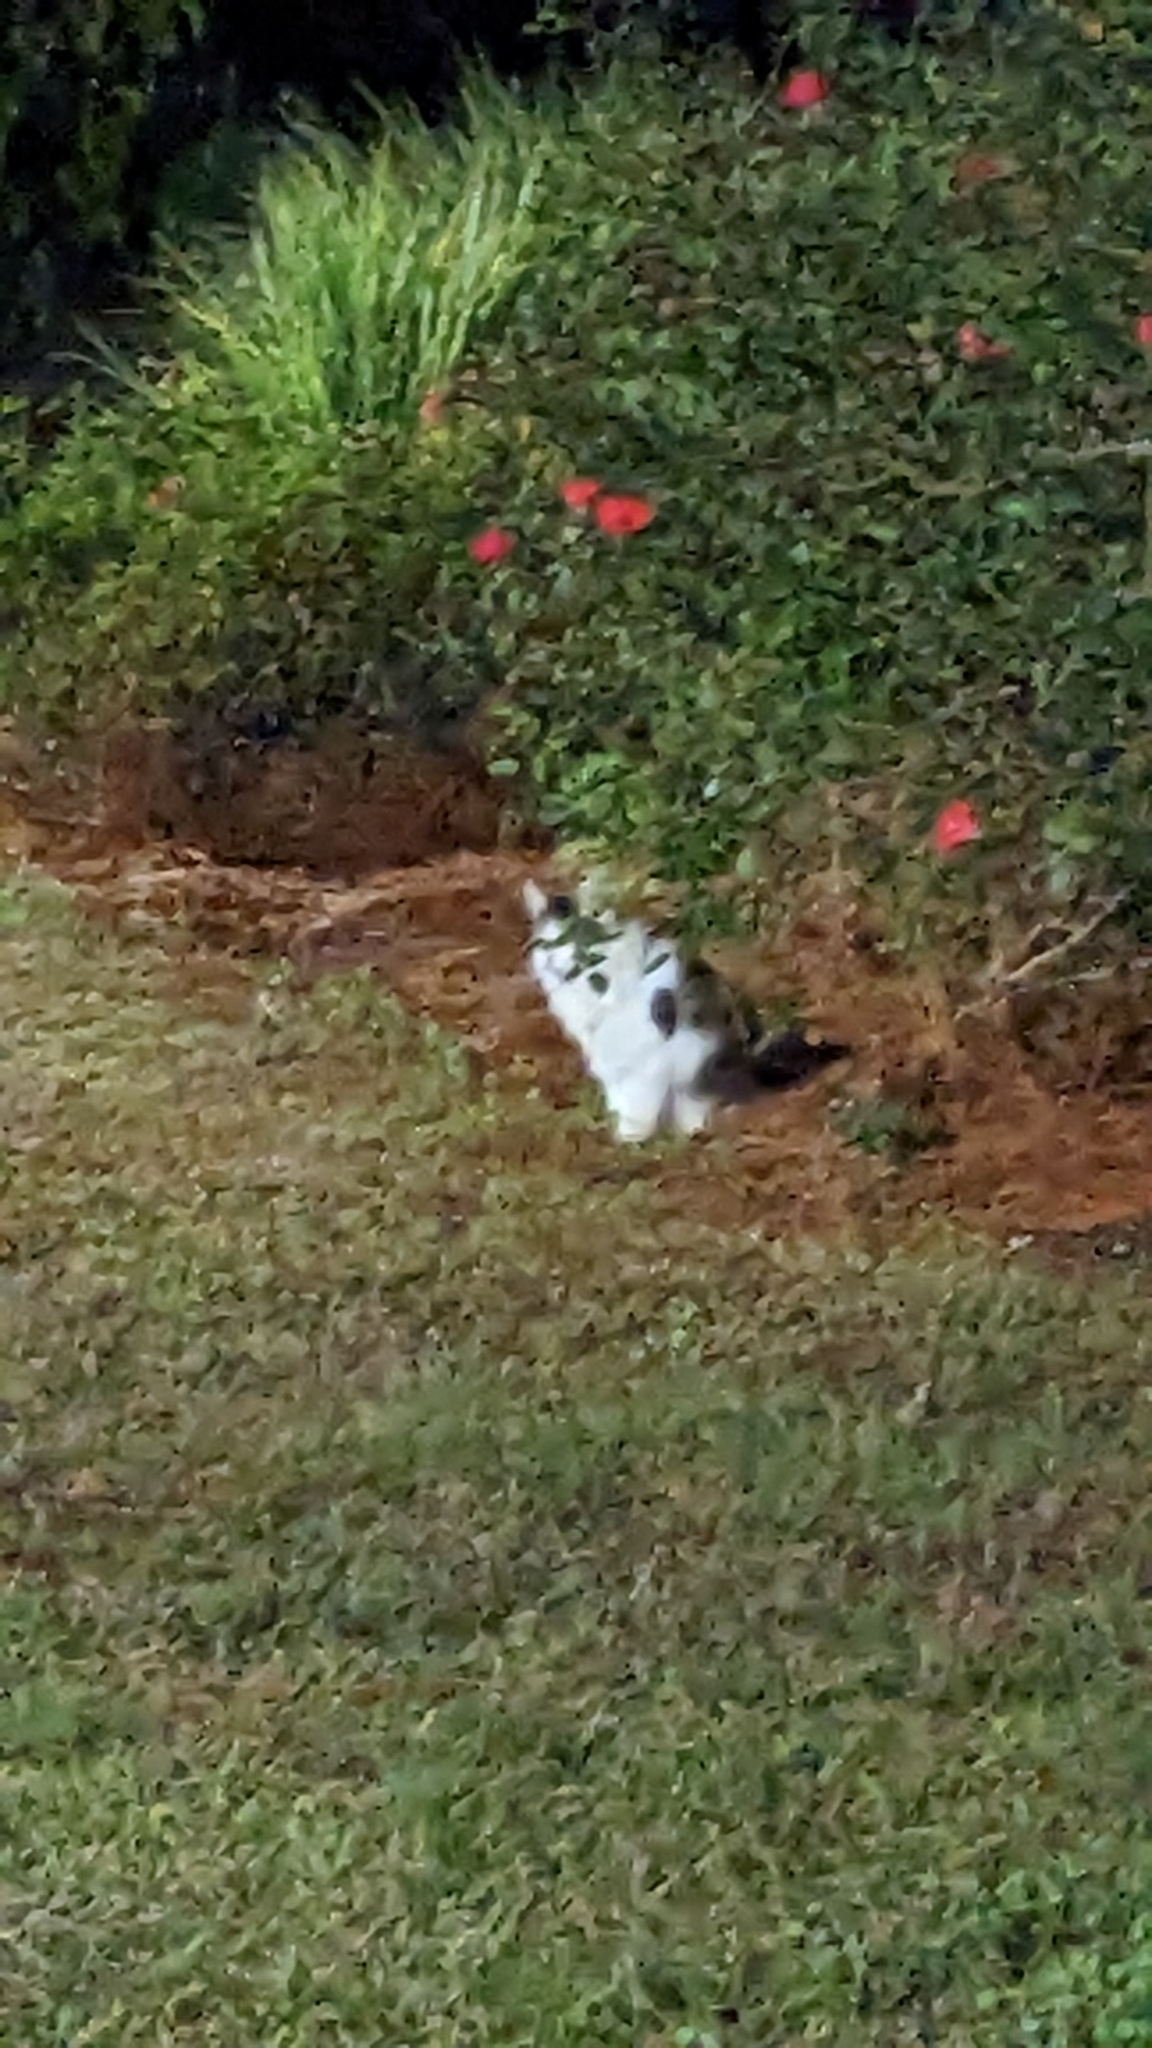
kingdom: Animalia
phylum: Chordata
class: Mammalia
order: Carnivora
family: Felidae
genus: Felis
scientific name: Felis catus
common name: Domestic cat
